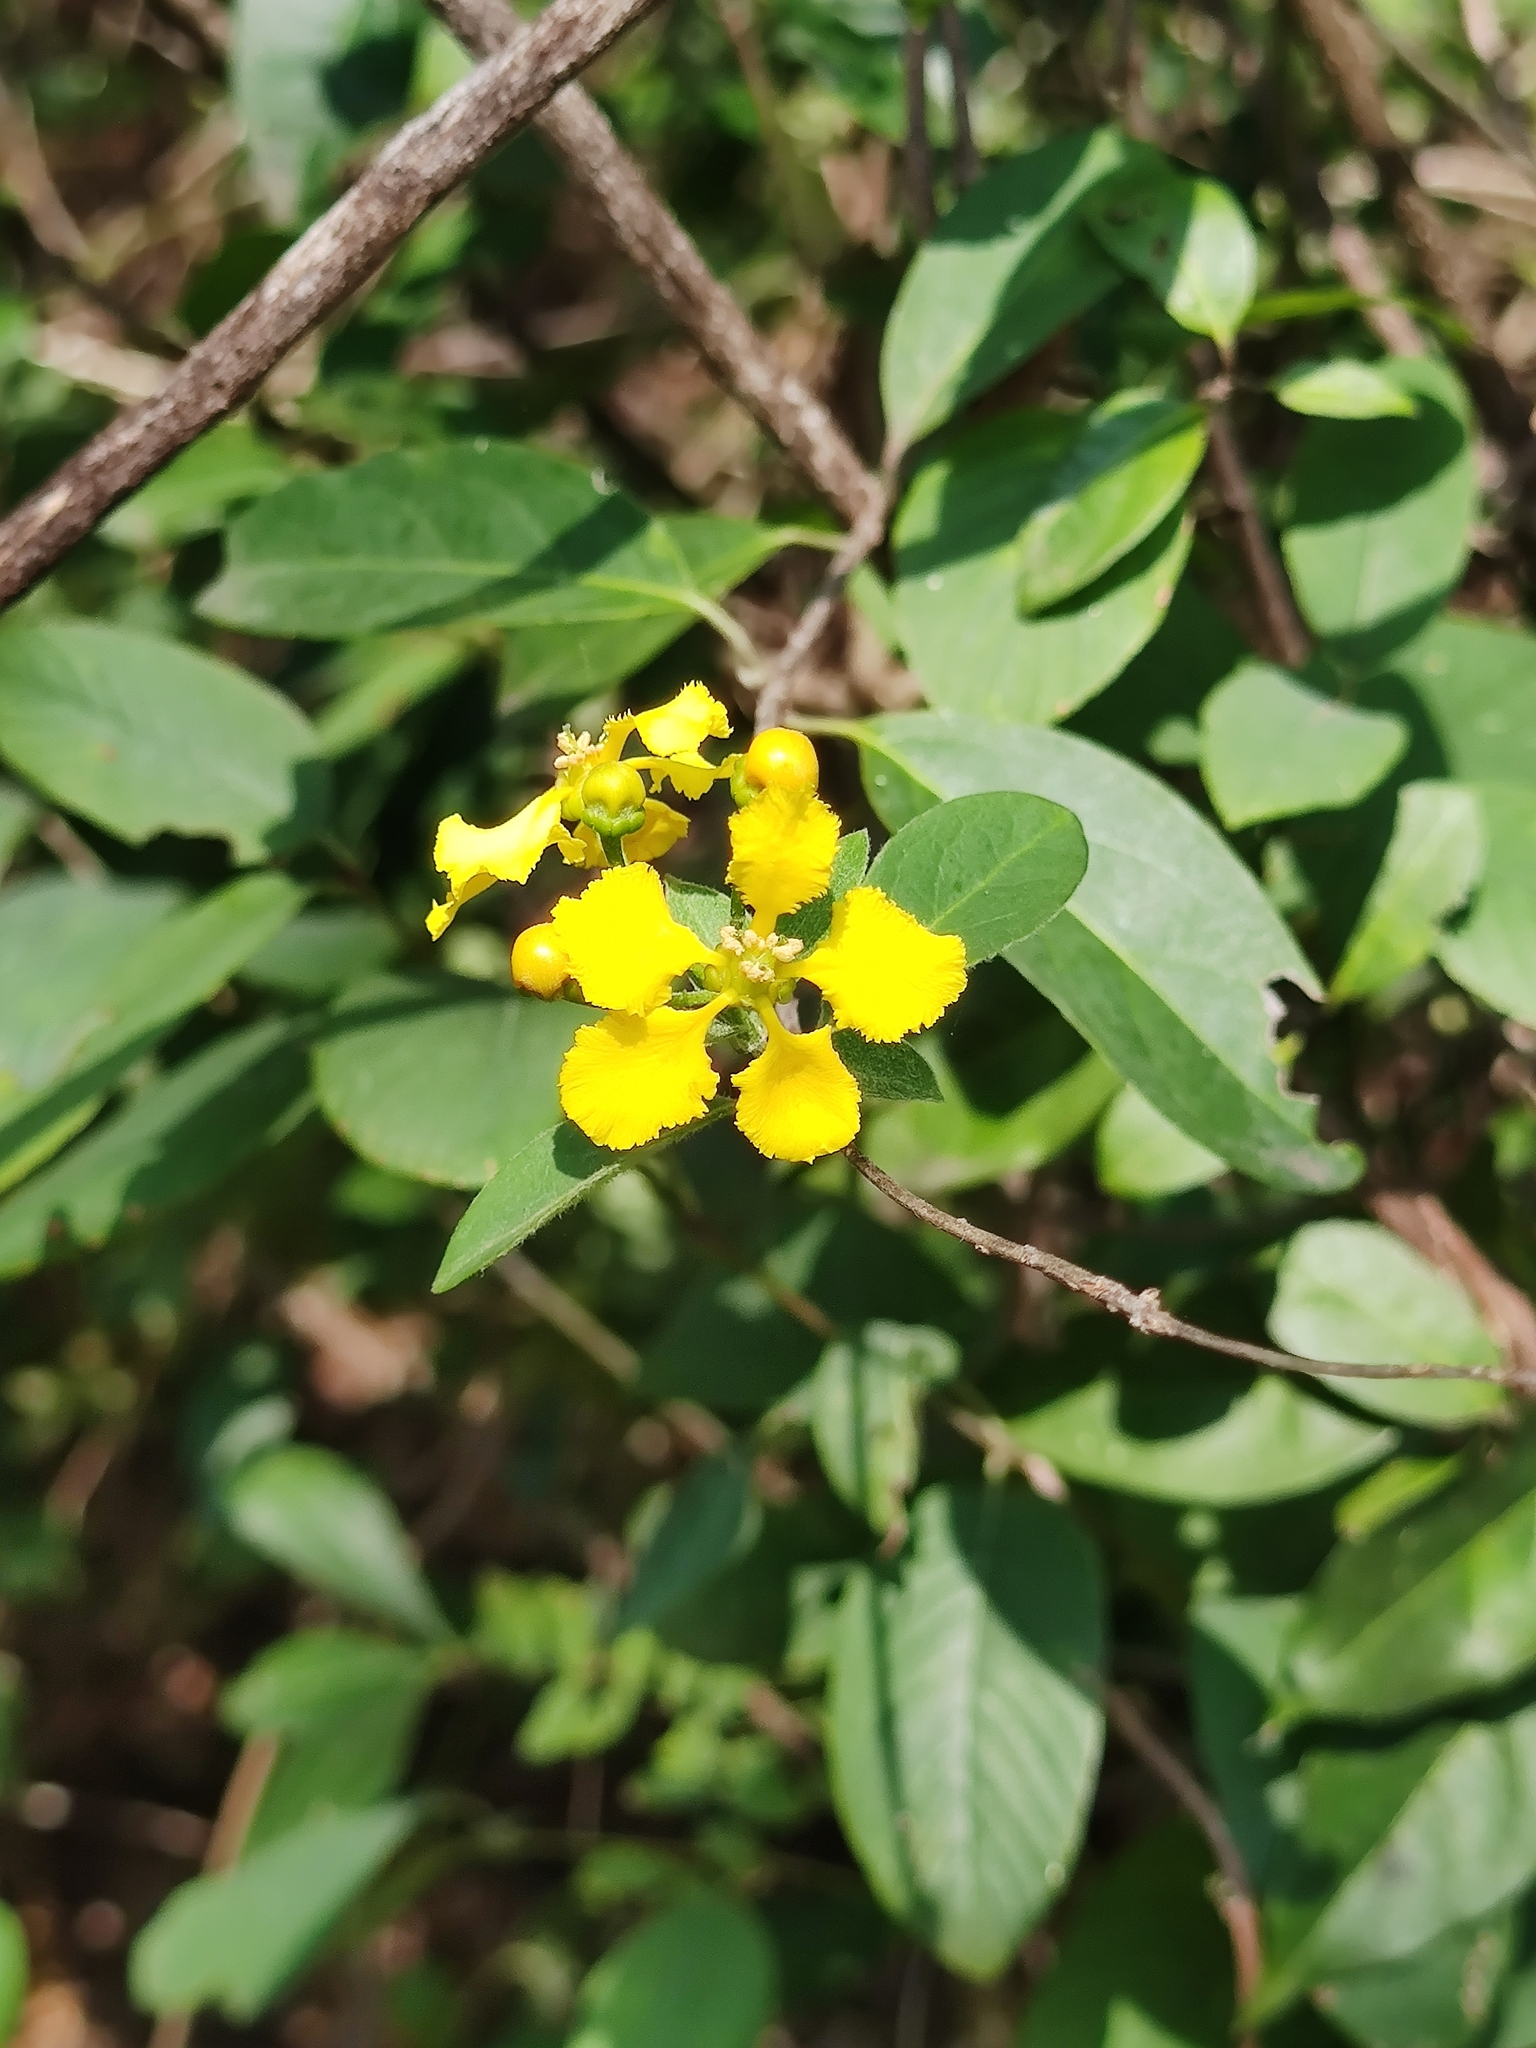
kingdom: Plantae
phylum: Tracheophyta
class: Magnoliopsida
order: Malpighiales
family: Malpighiaceae
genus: Callaeum
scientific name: Callaeum macropterum
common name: Mexican butterfly-vine
